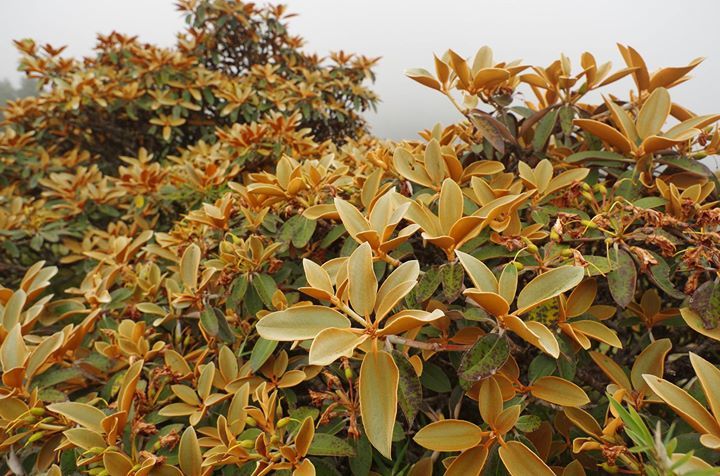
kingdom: Plantae
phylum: Tracheophyta
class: Magnoliopsida
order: Ericales
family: Ericaceae
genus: Rhododendron
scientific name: Rhododendron hyperythrum
